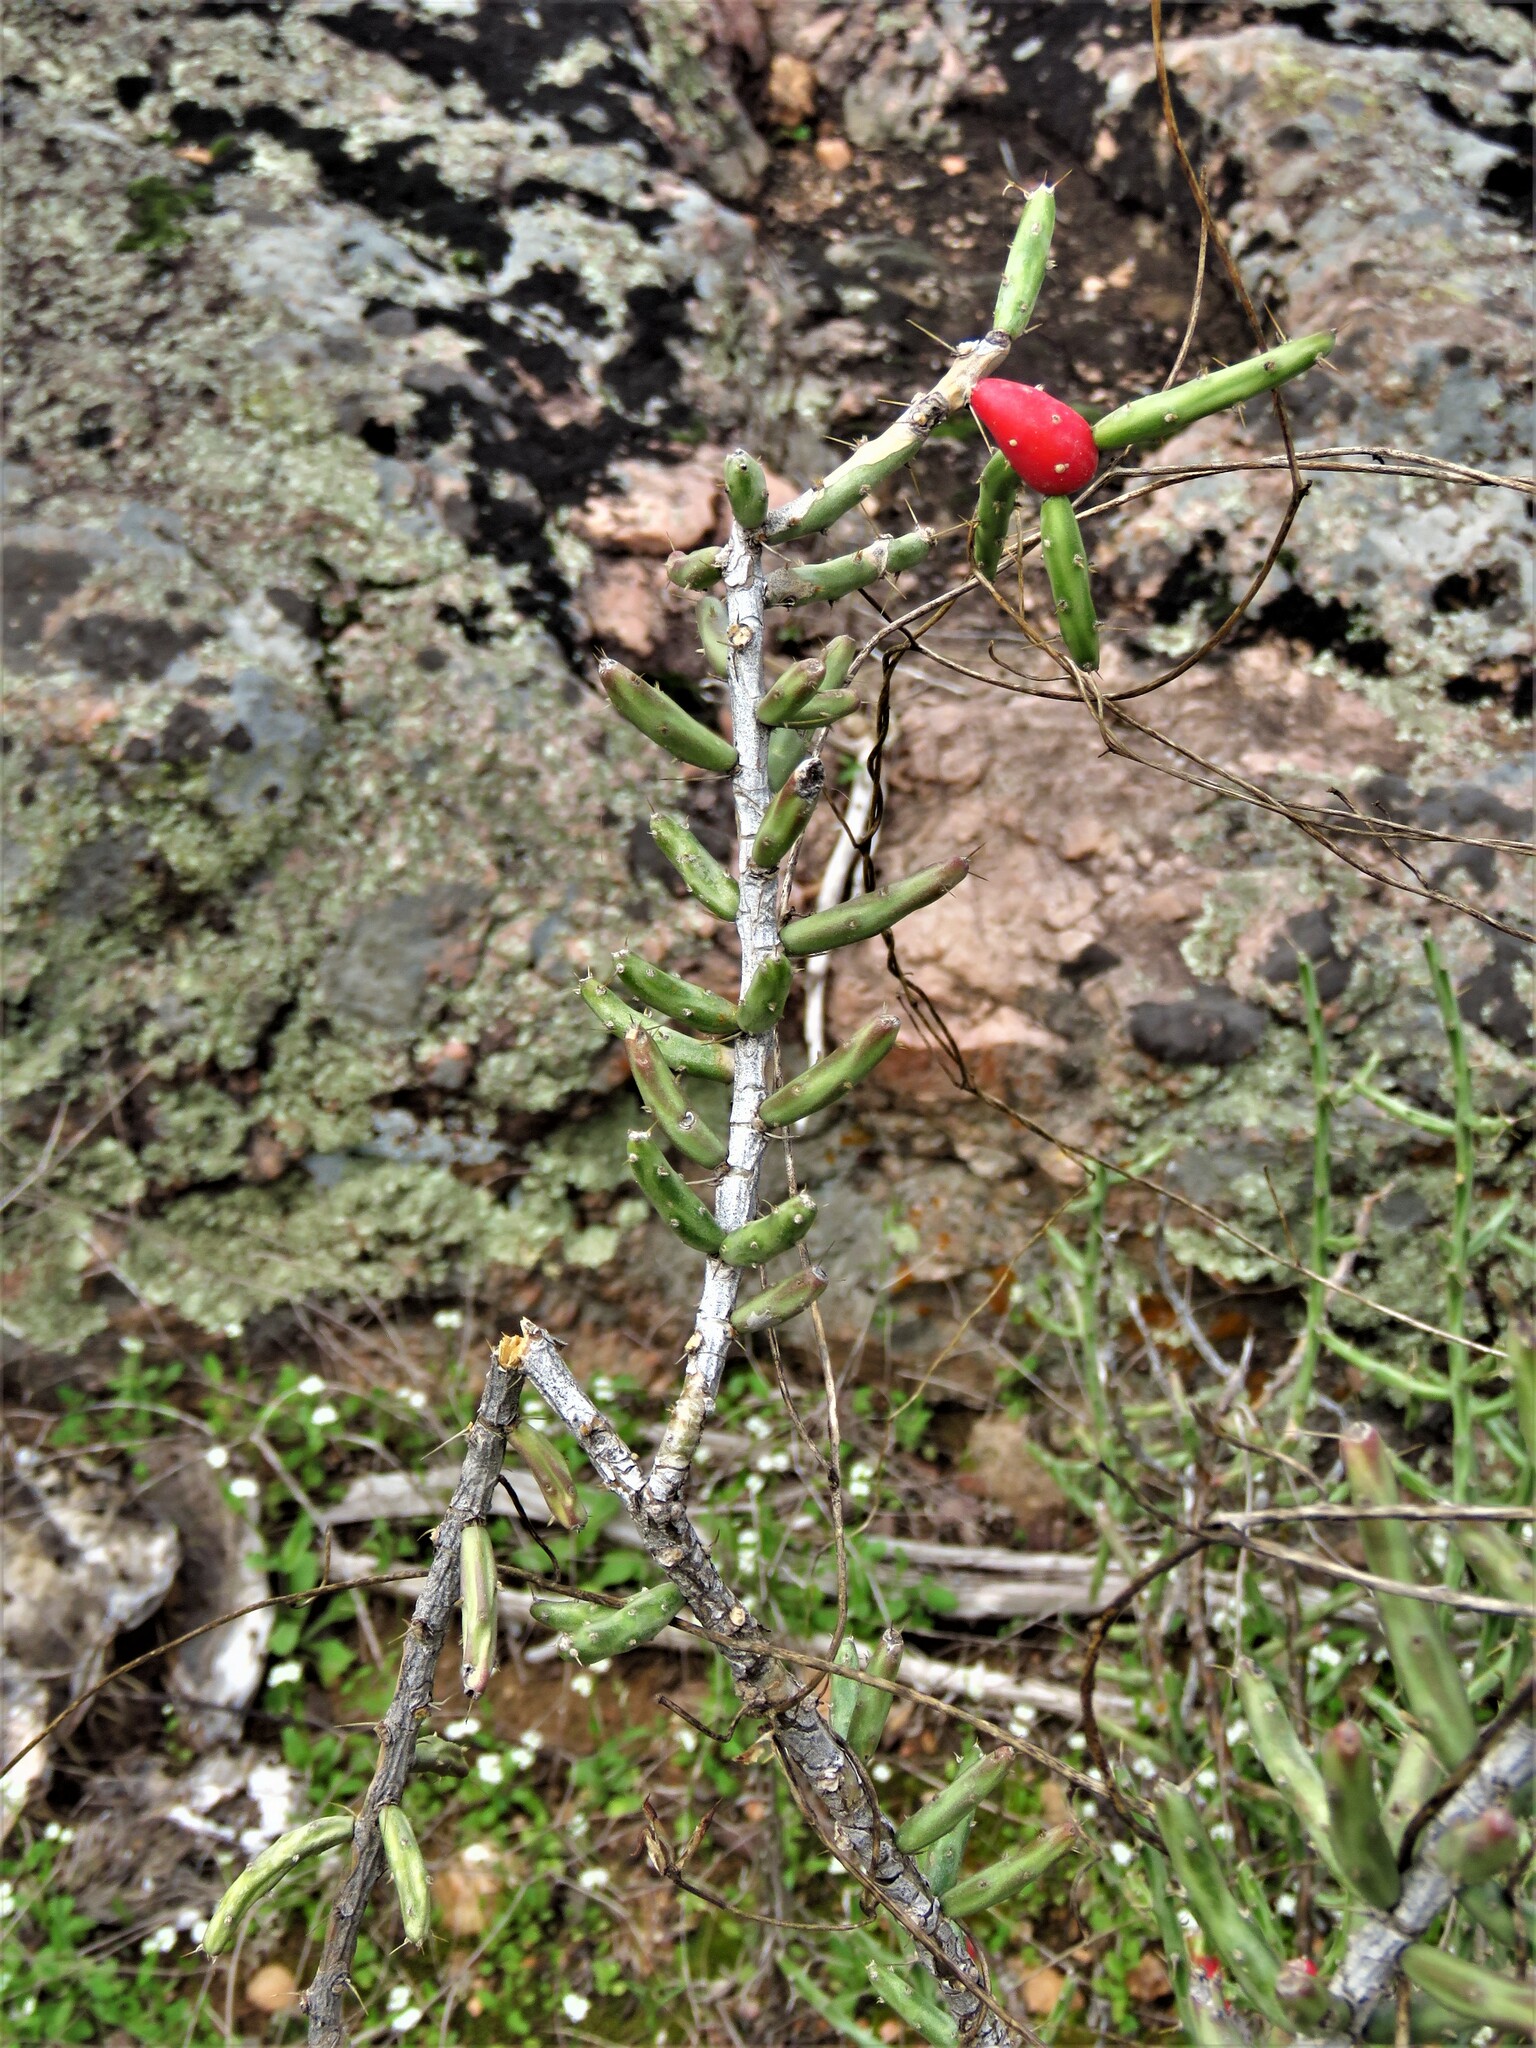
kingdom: Plantae
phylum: Tracheophyta
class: Magnoliopsida
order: Caryophyllales
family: Cactaceae
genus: Cylindropuntia
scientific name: Cylindropuntia leptocaulis
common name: Christmas cactus
